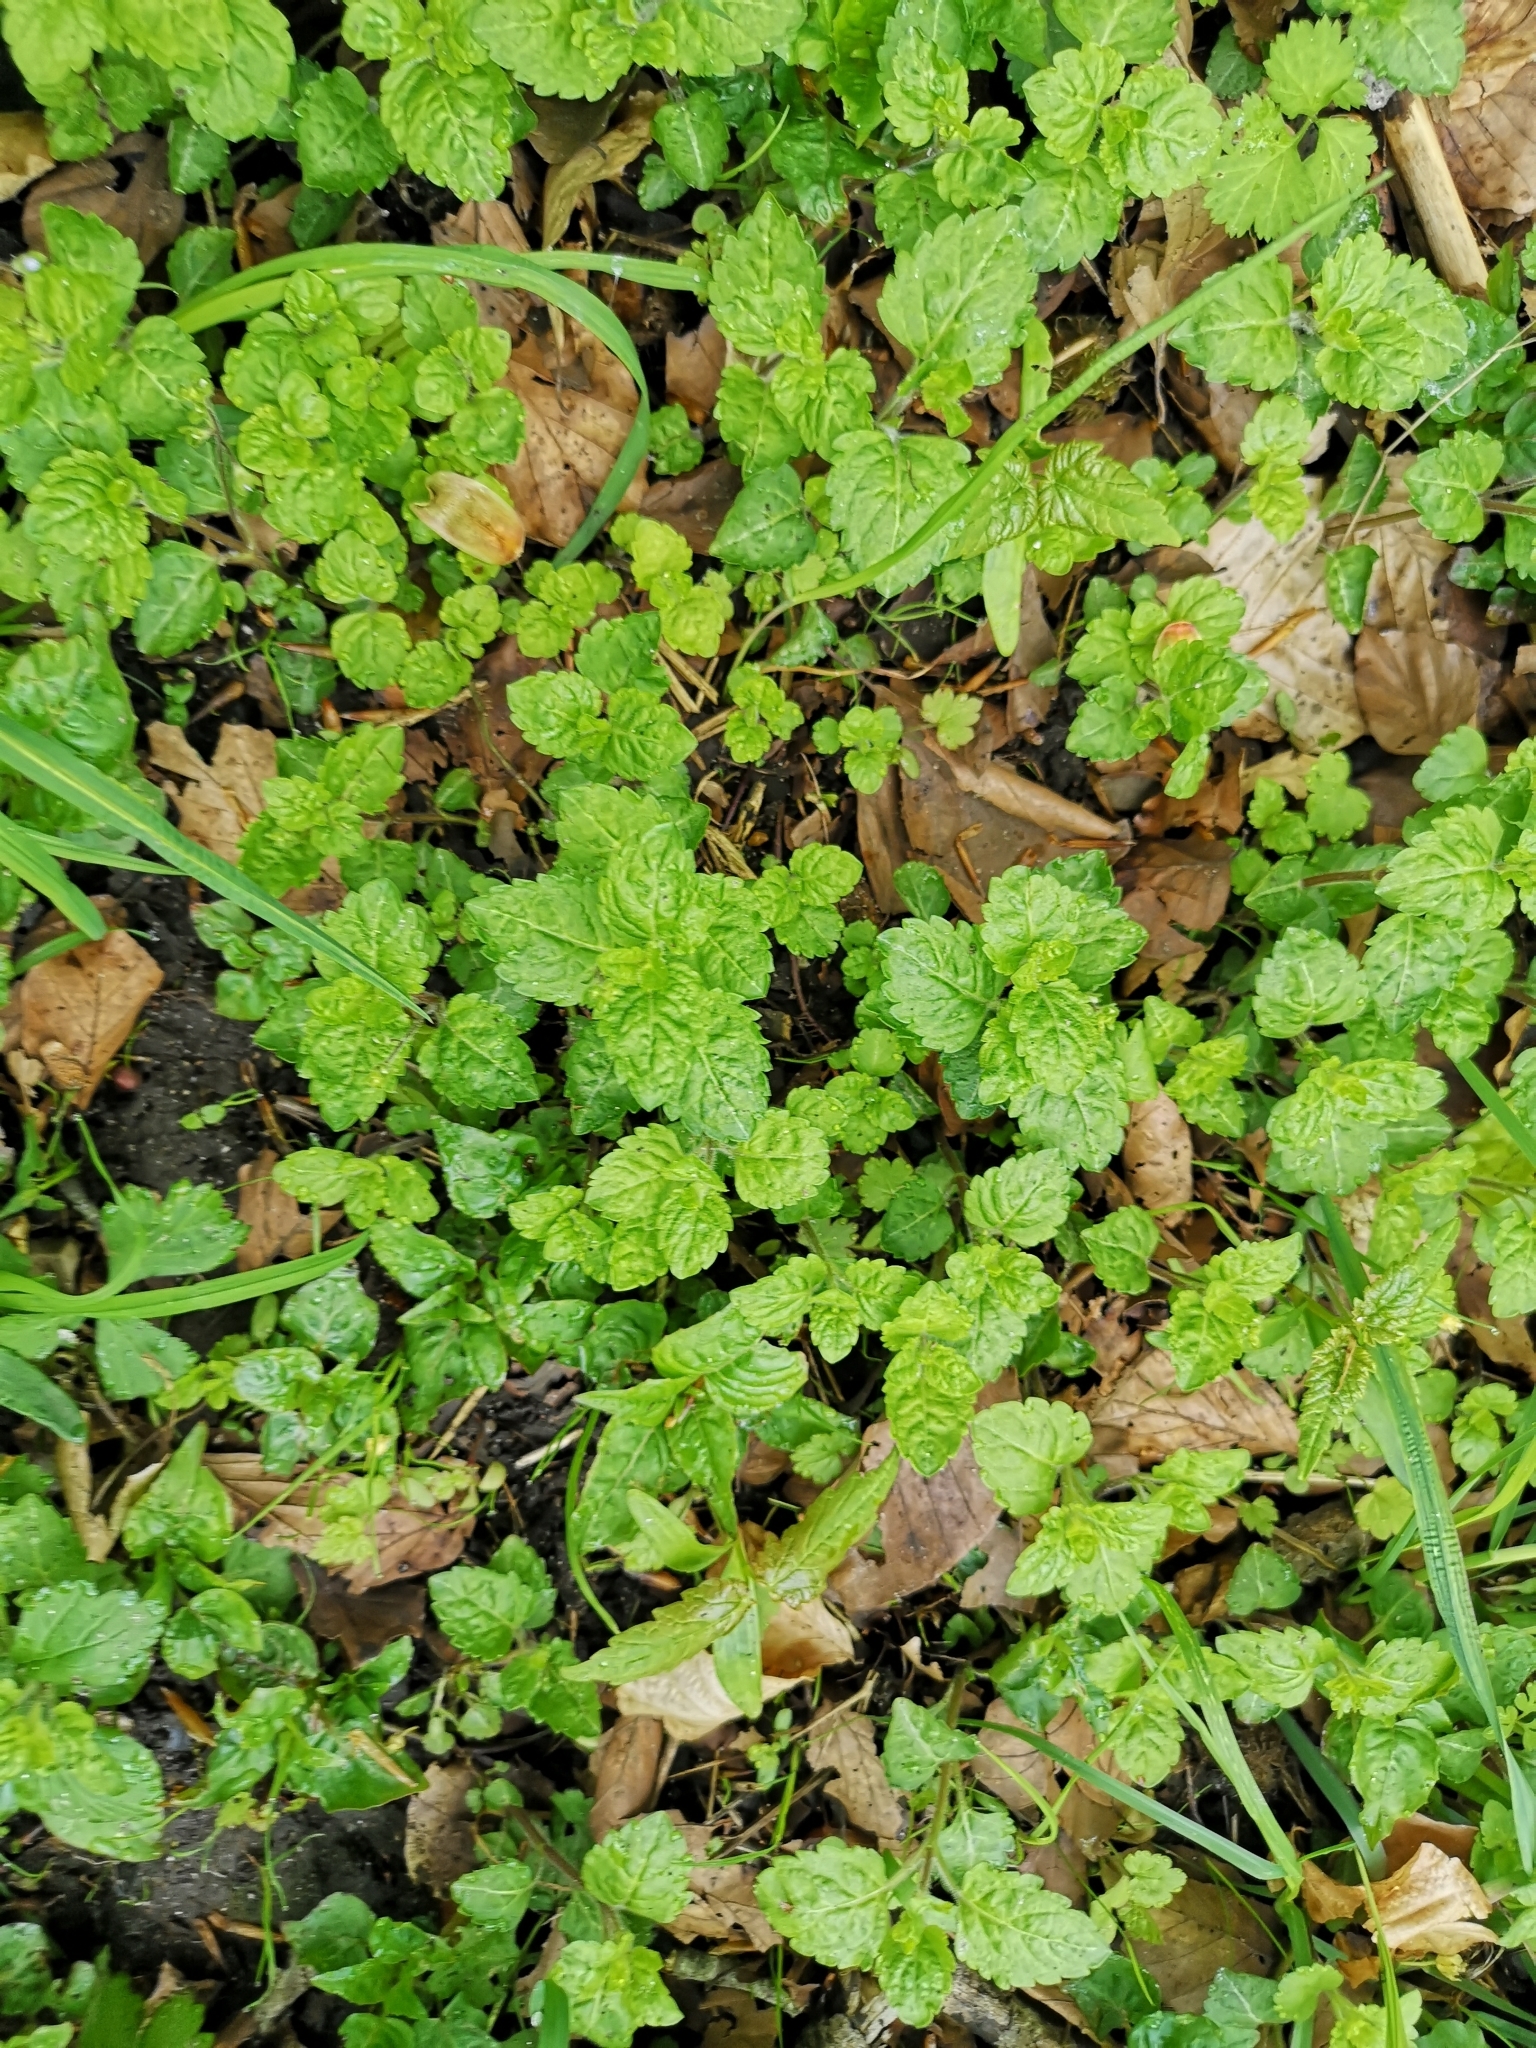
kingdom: Plantae
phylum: Tracheophyta
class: Magnoliopsida
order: Lamiales
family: Plantaginaceae
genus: Veronica
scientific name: Veronica montana
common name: Wood speedwell
